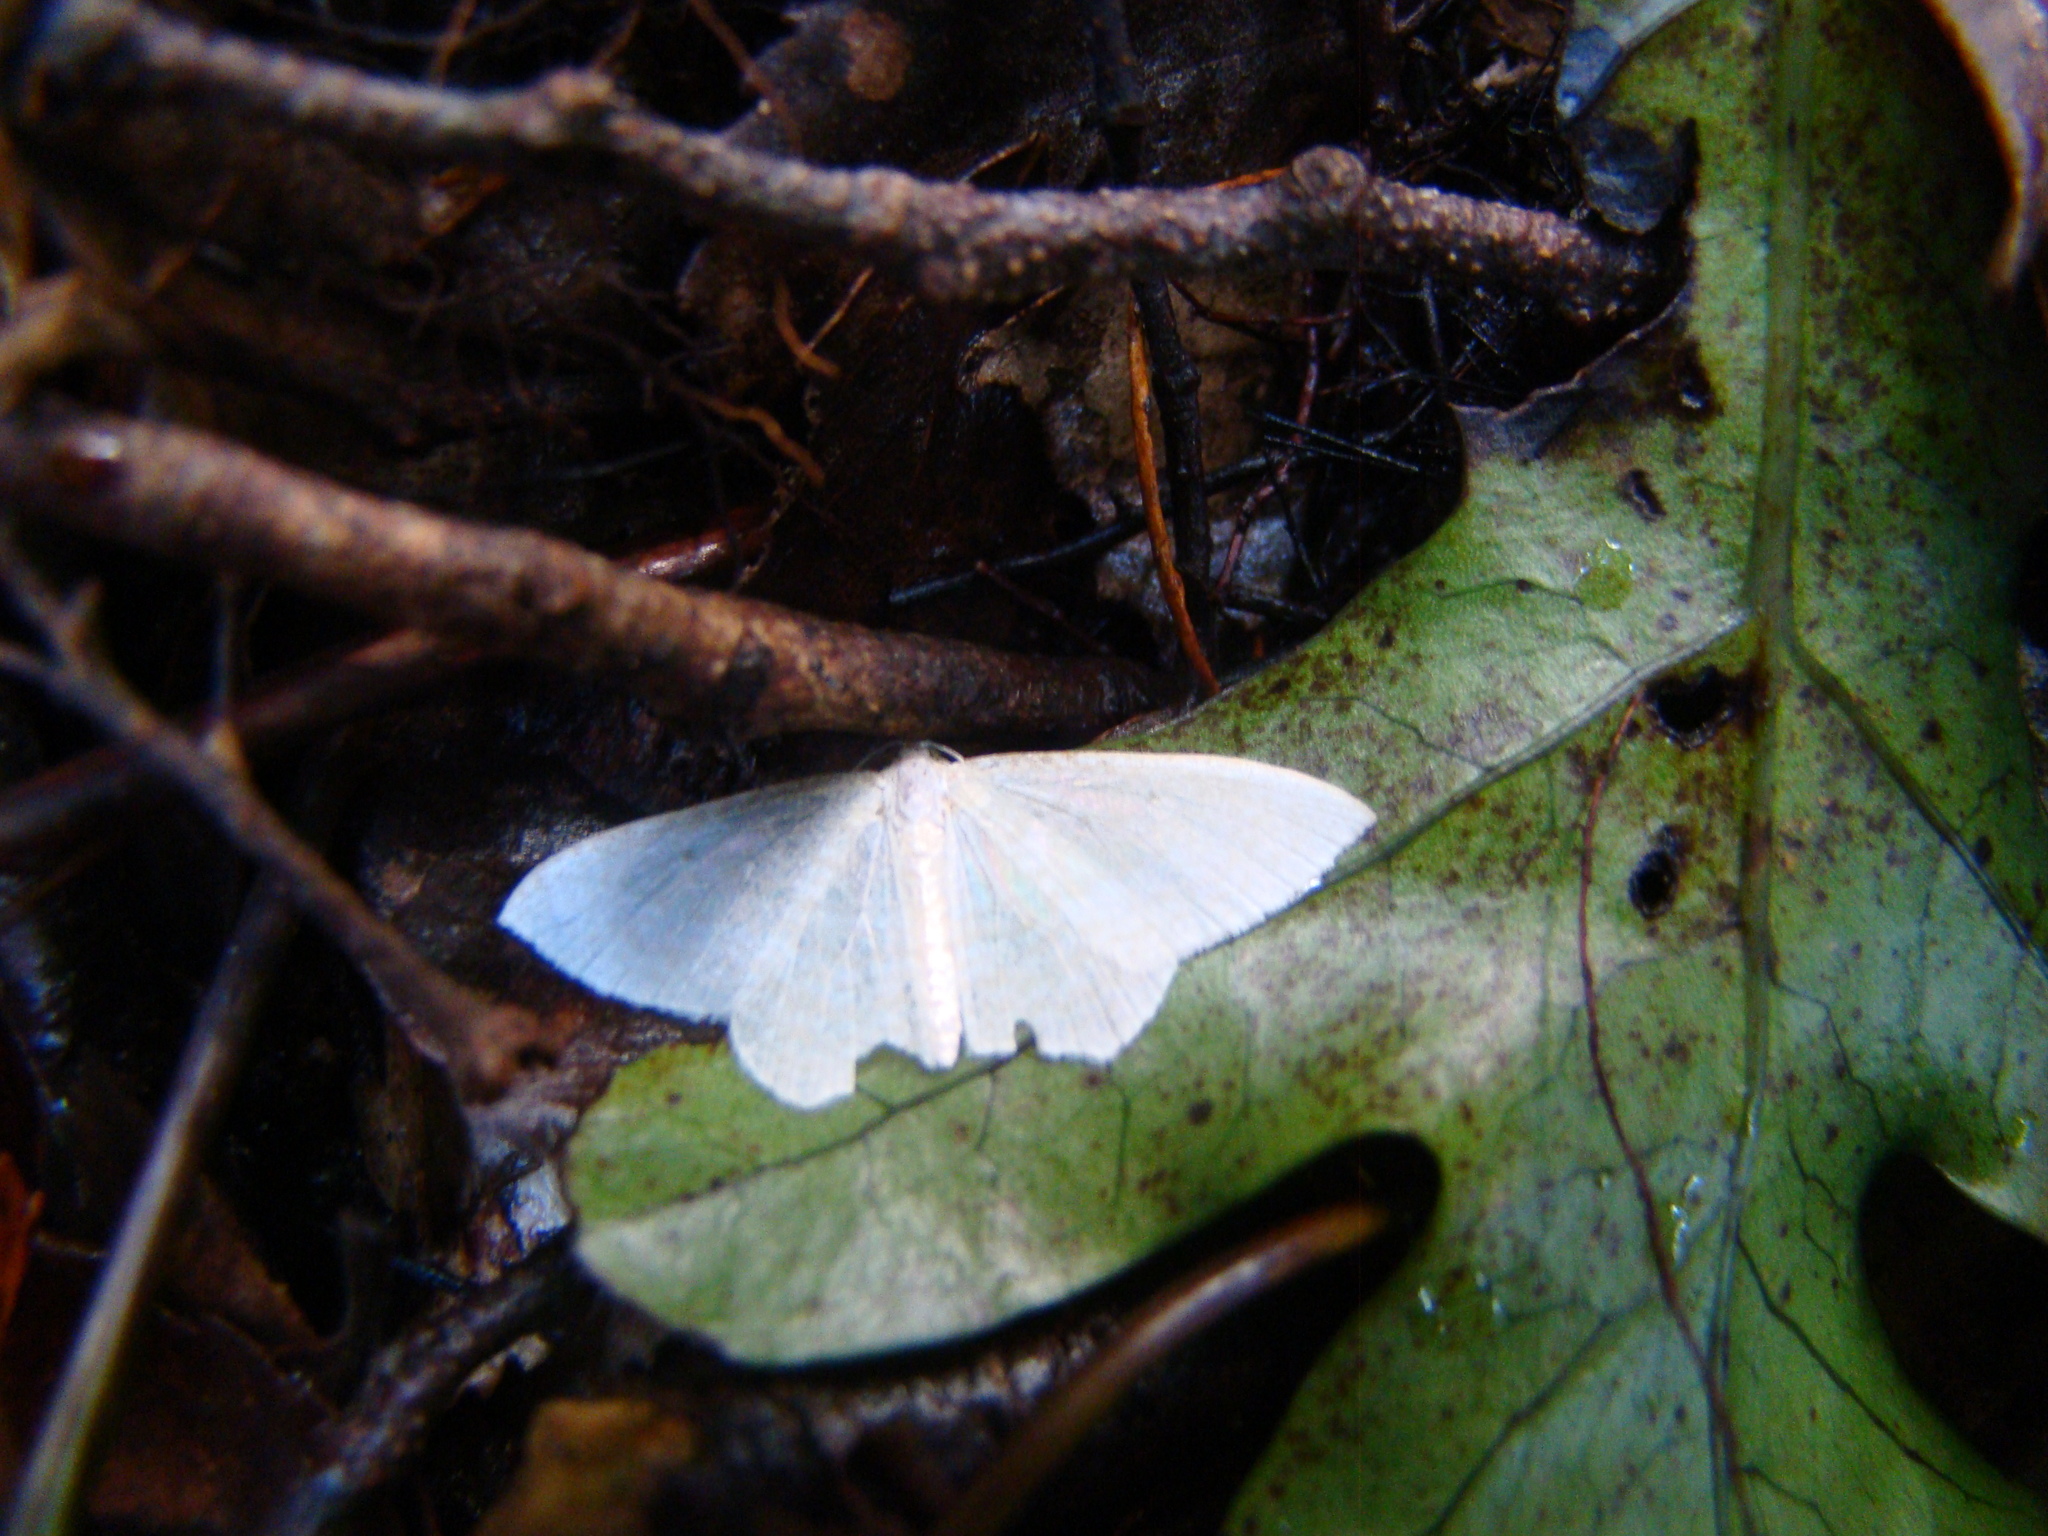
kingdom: Animalia
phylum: Arthropoda
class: Insecta
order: Lepidoptera
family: Geometridae
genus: Poecilasthena
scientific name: Poecilasthena pulchraria
